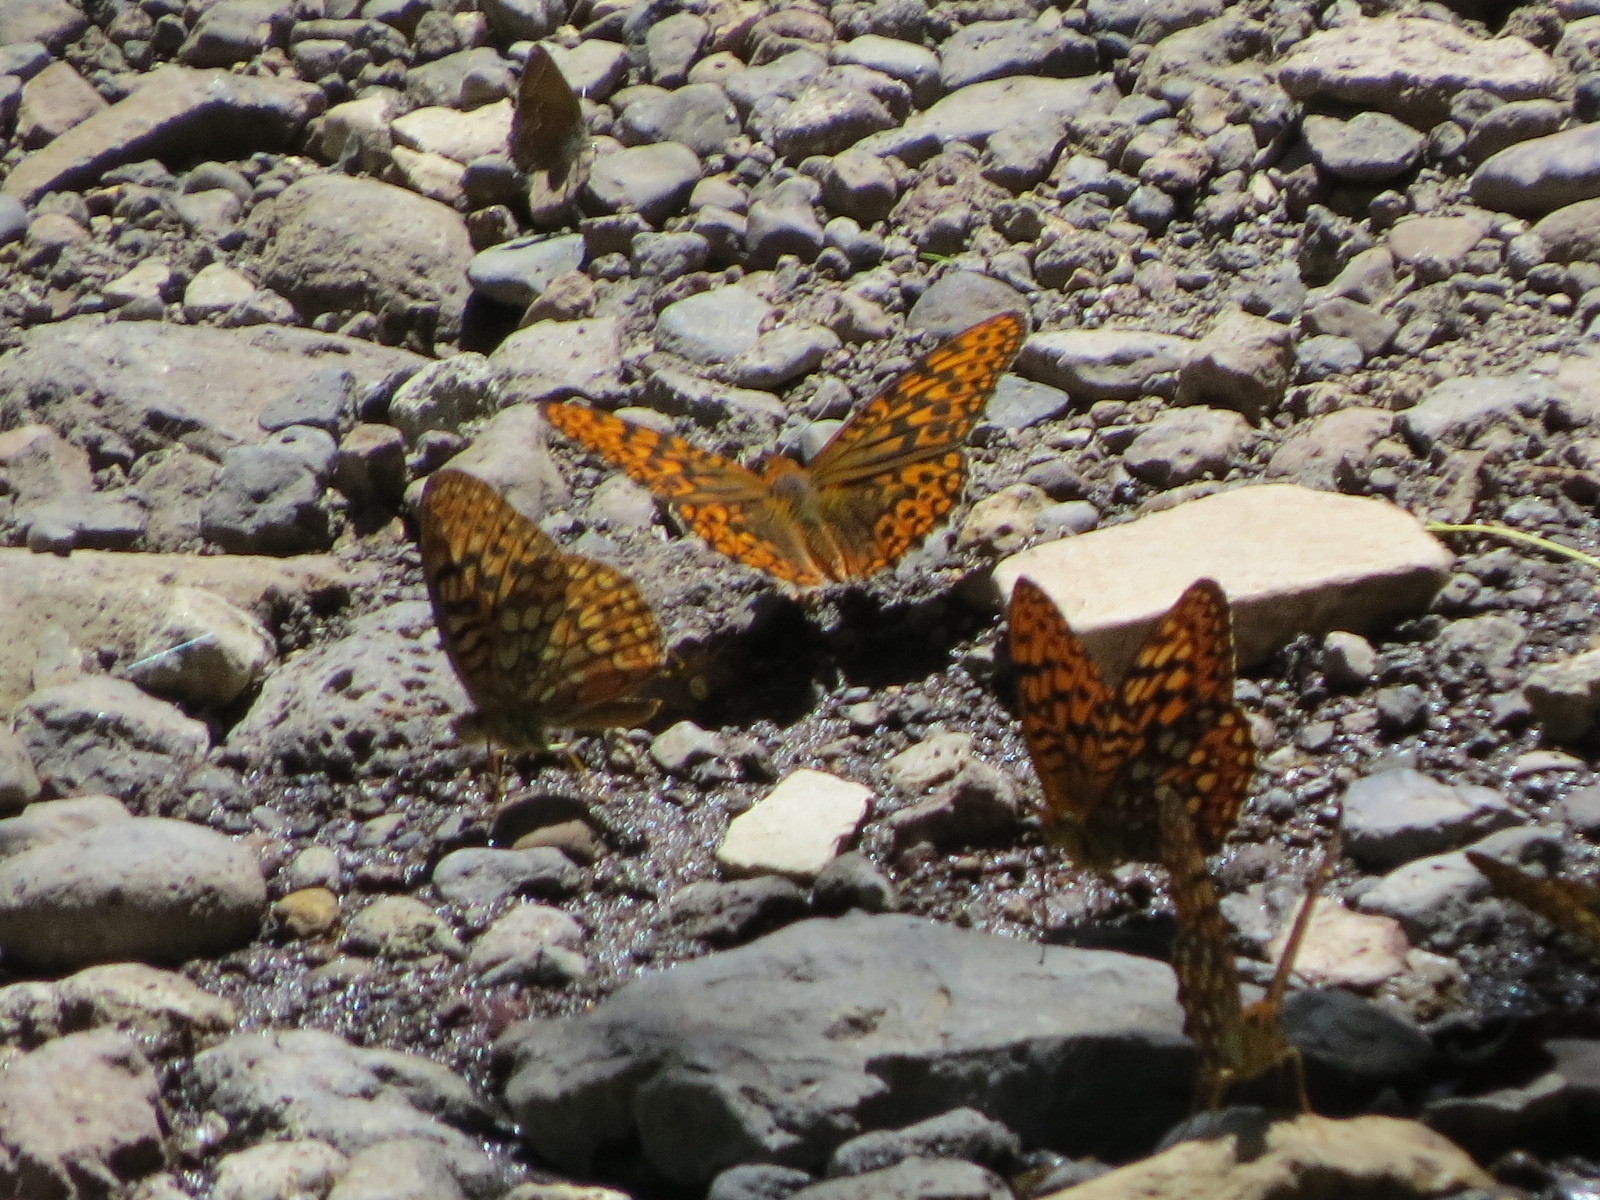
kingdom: Animalia
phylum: Arthropoda
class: Insecta
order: Lepidoptera
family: Nymphalidae
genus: Speyeria
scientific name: Speyeria hydaspe
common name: Hydaspe fritillary
